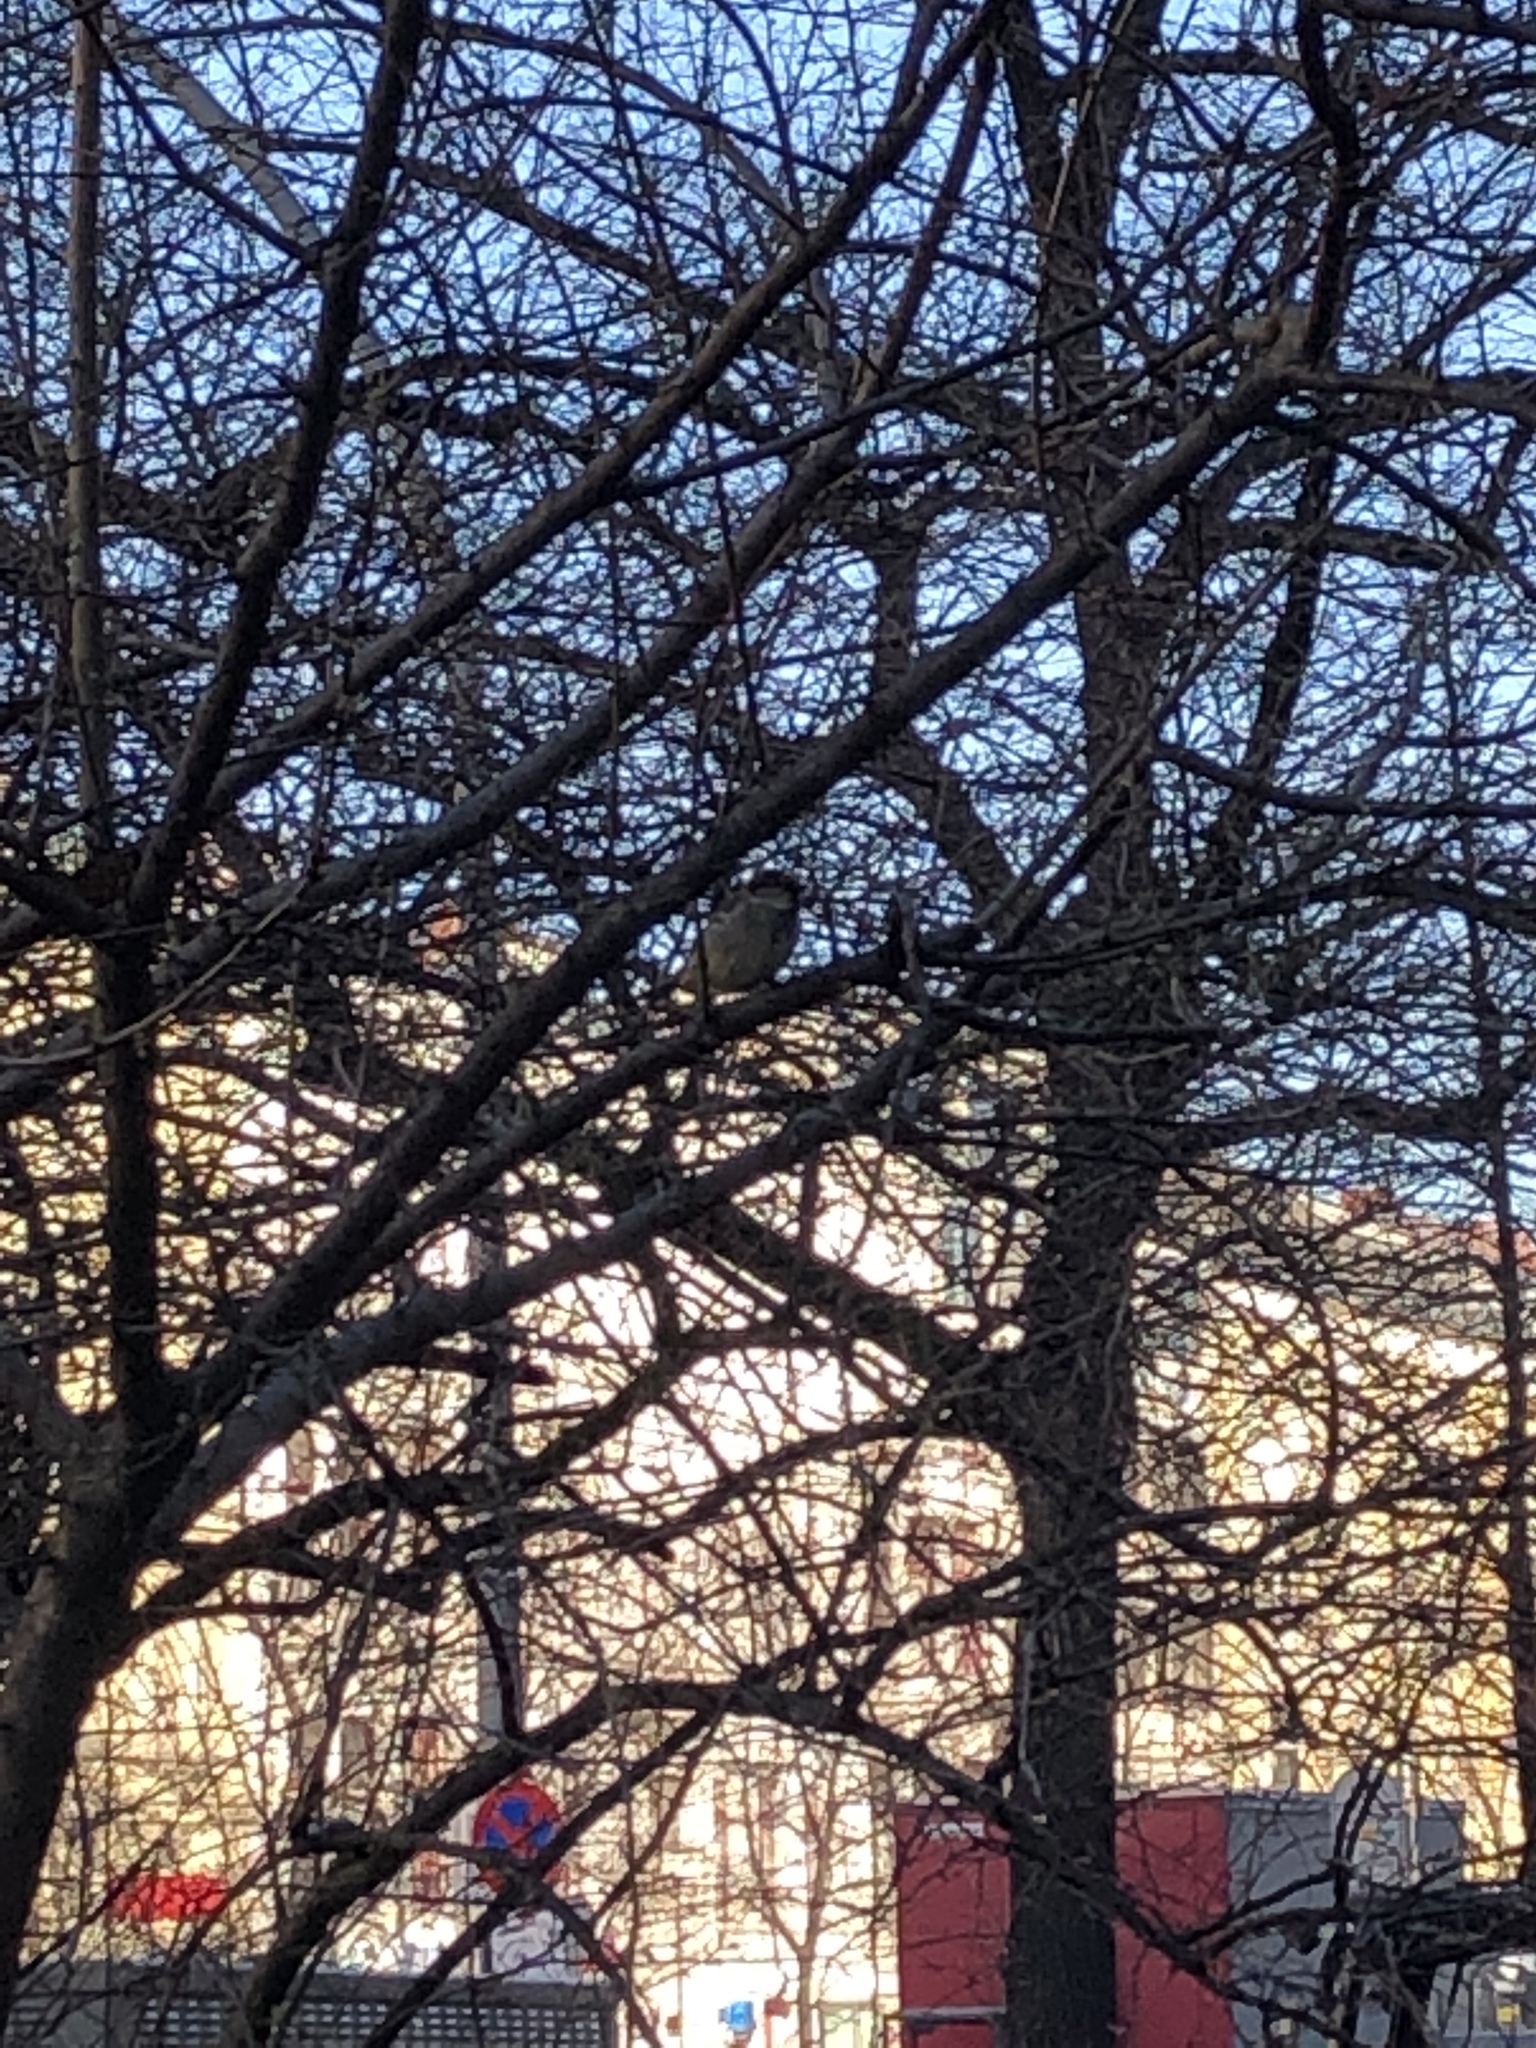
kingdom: Animalia
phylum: Chordata
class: Aves
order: Passeriformes
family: Passeridae
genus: Passer
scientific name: Passer domesticus
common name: House sparrow
